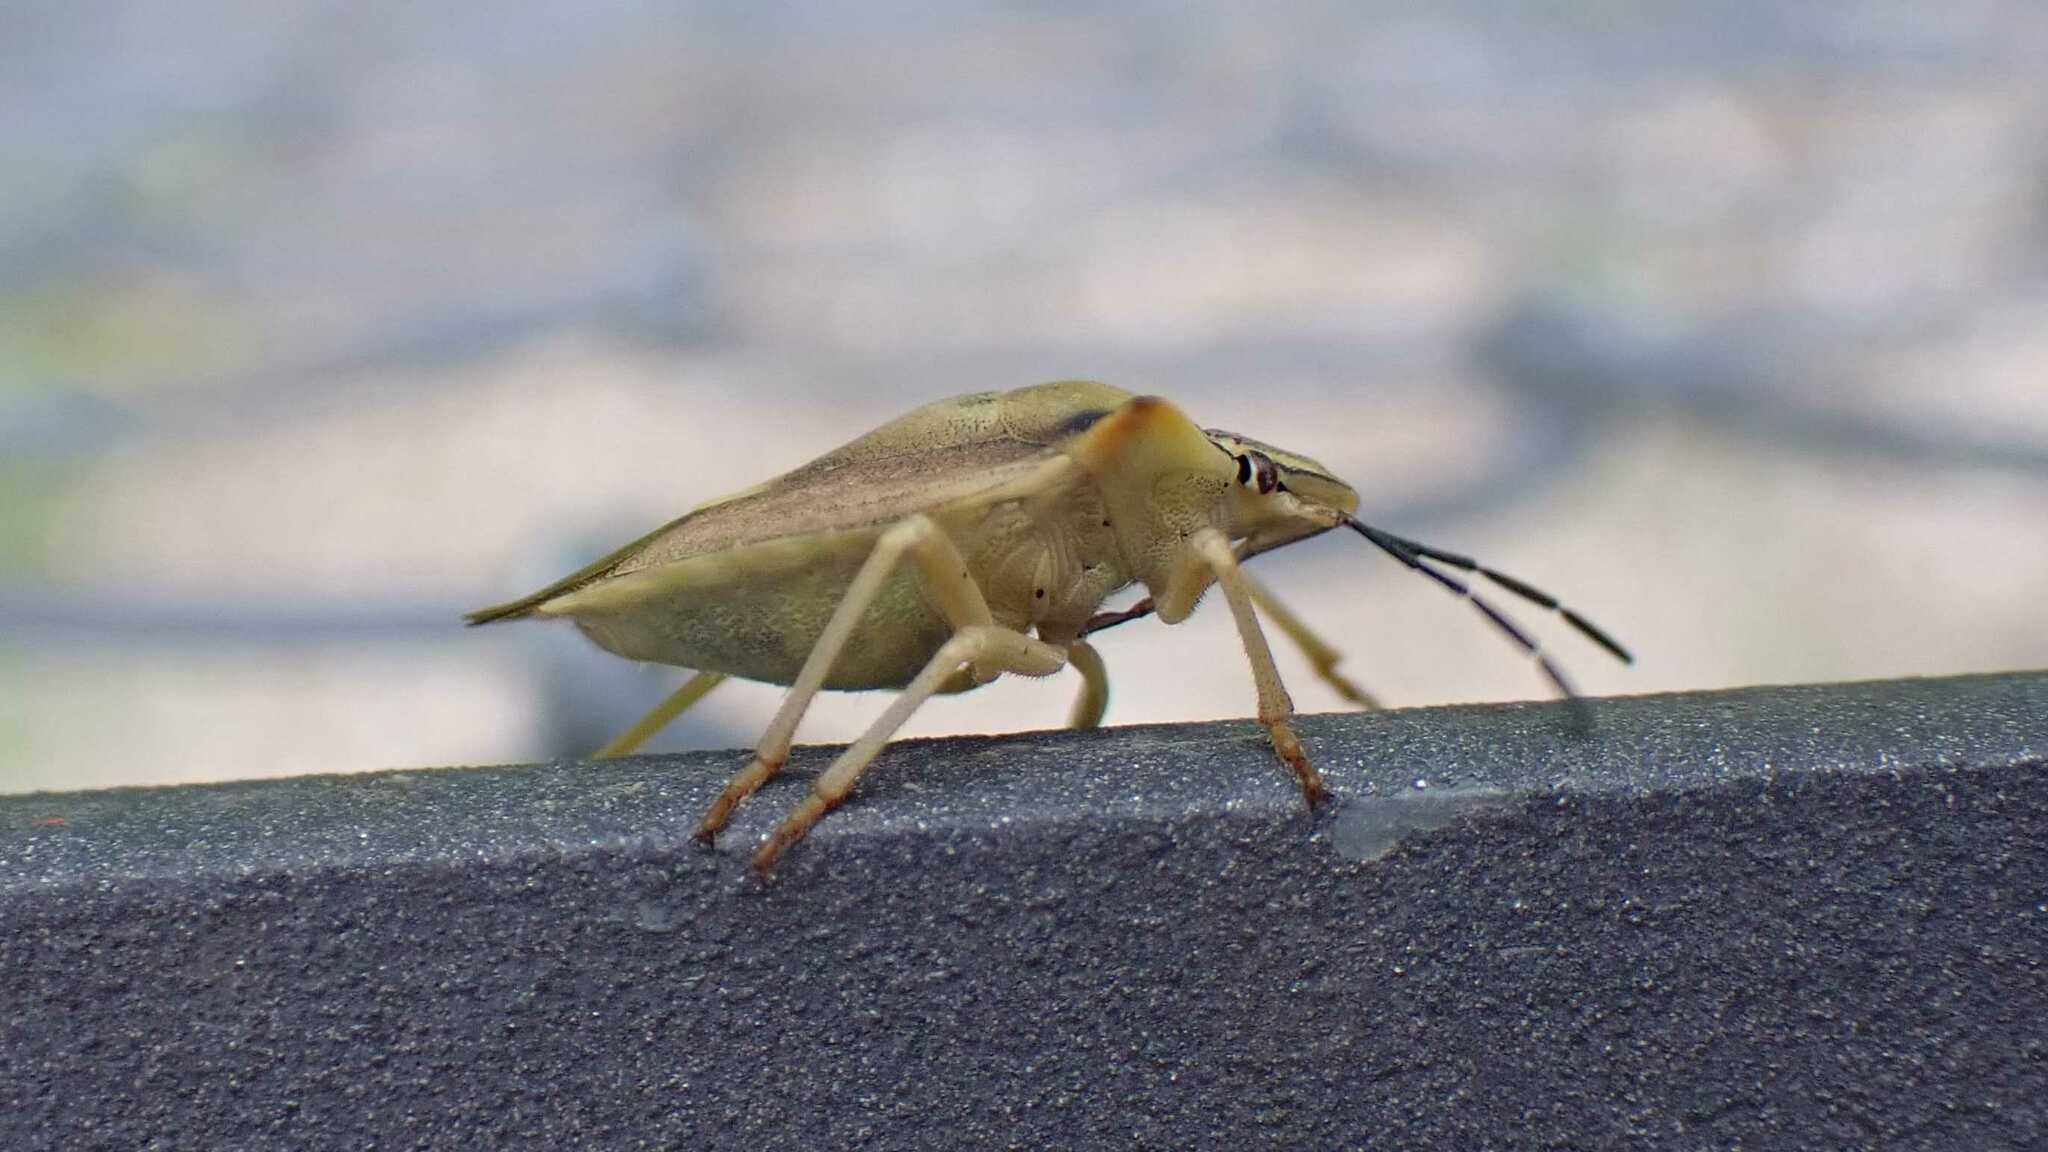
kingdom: Animalia
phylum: Arthropoda
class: Insecta
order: Hemiptera
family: Pentatomidae
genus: Carpocoris
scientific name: Carpocoris fuscispinus
